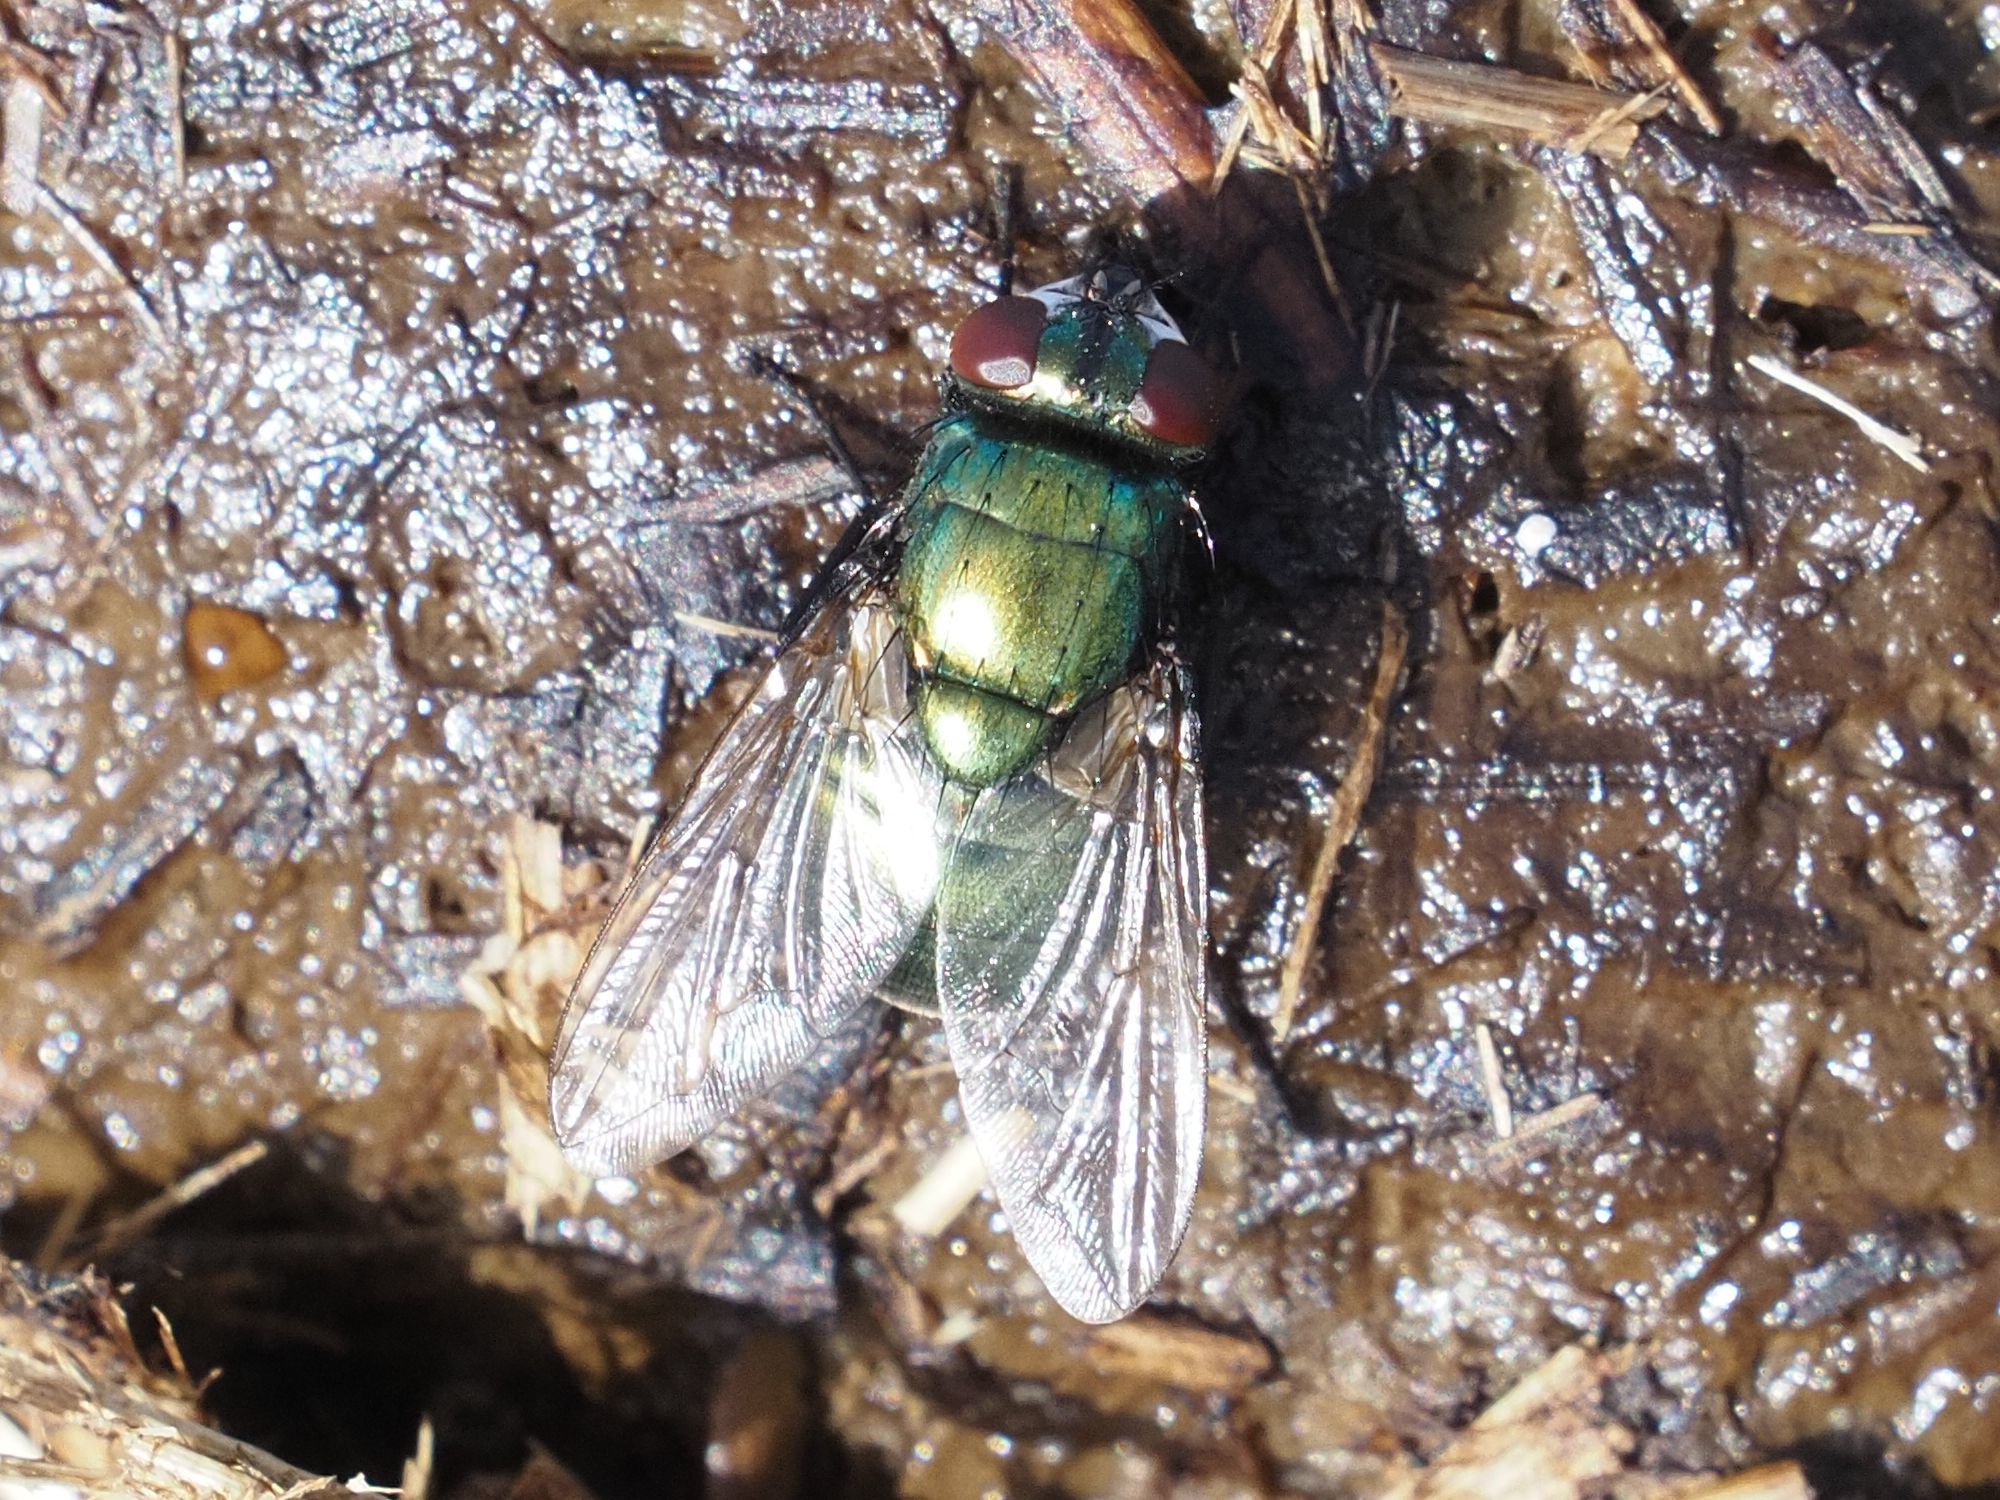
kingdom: Animalia
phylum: Arthropoda
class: Insecta
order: Diptera
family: Muscidae
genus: Neomyia
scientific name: Neomyia cornicina
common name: House fly
